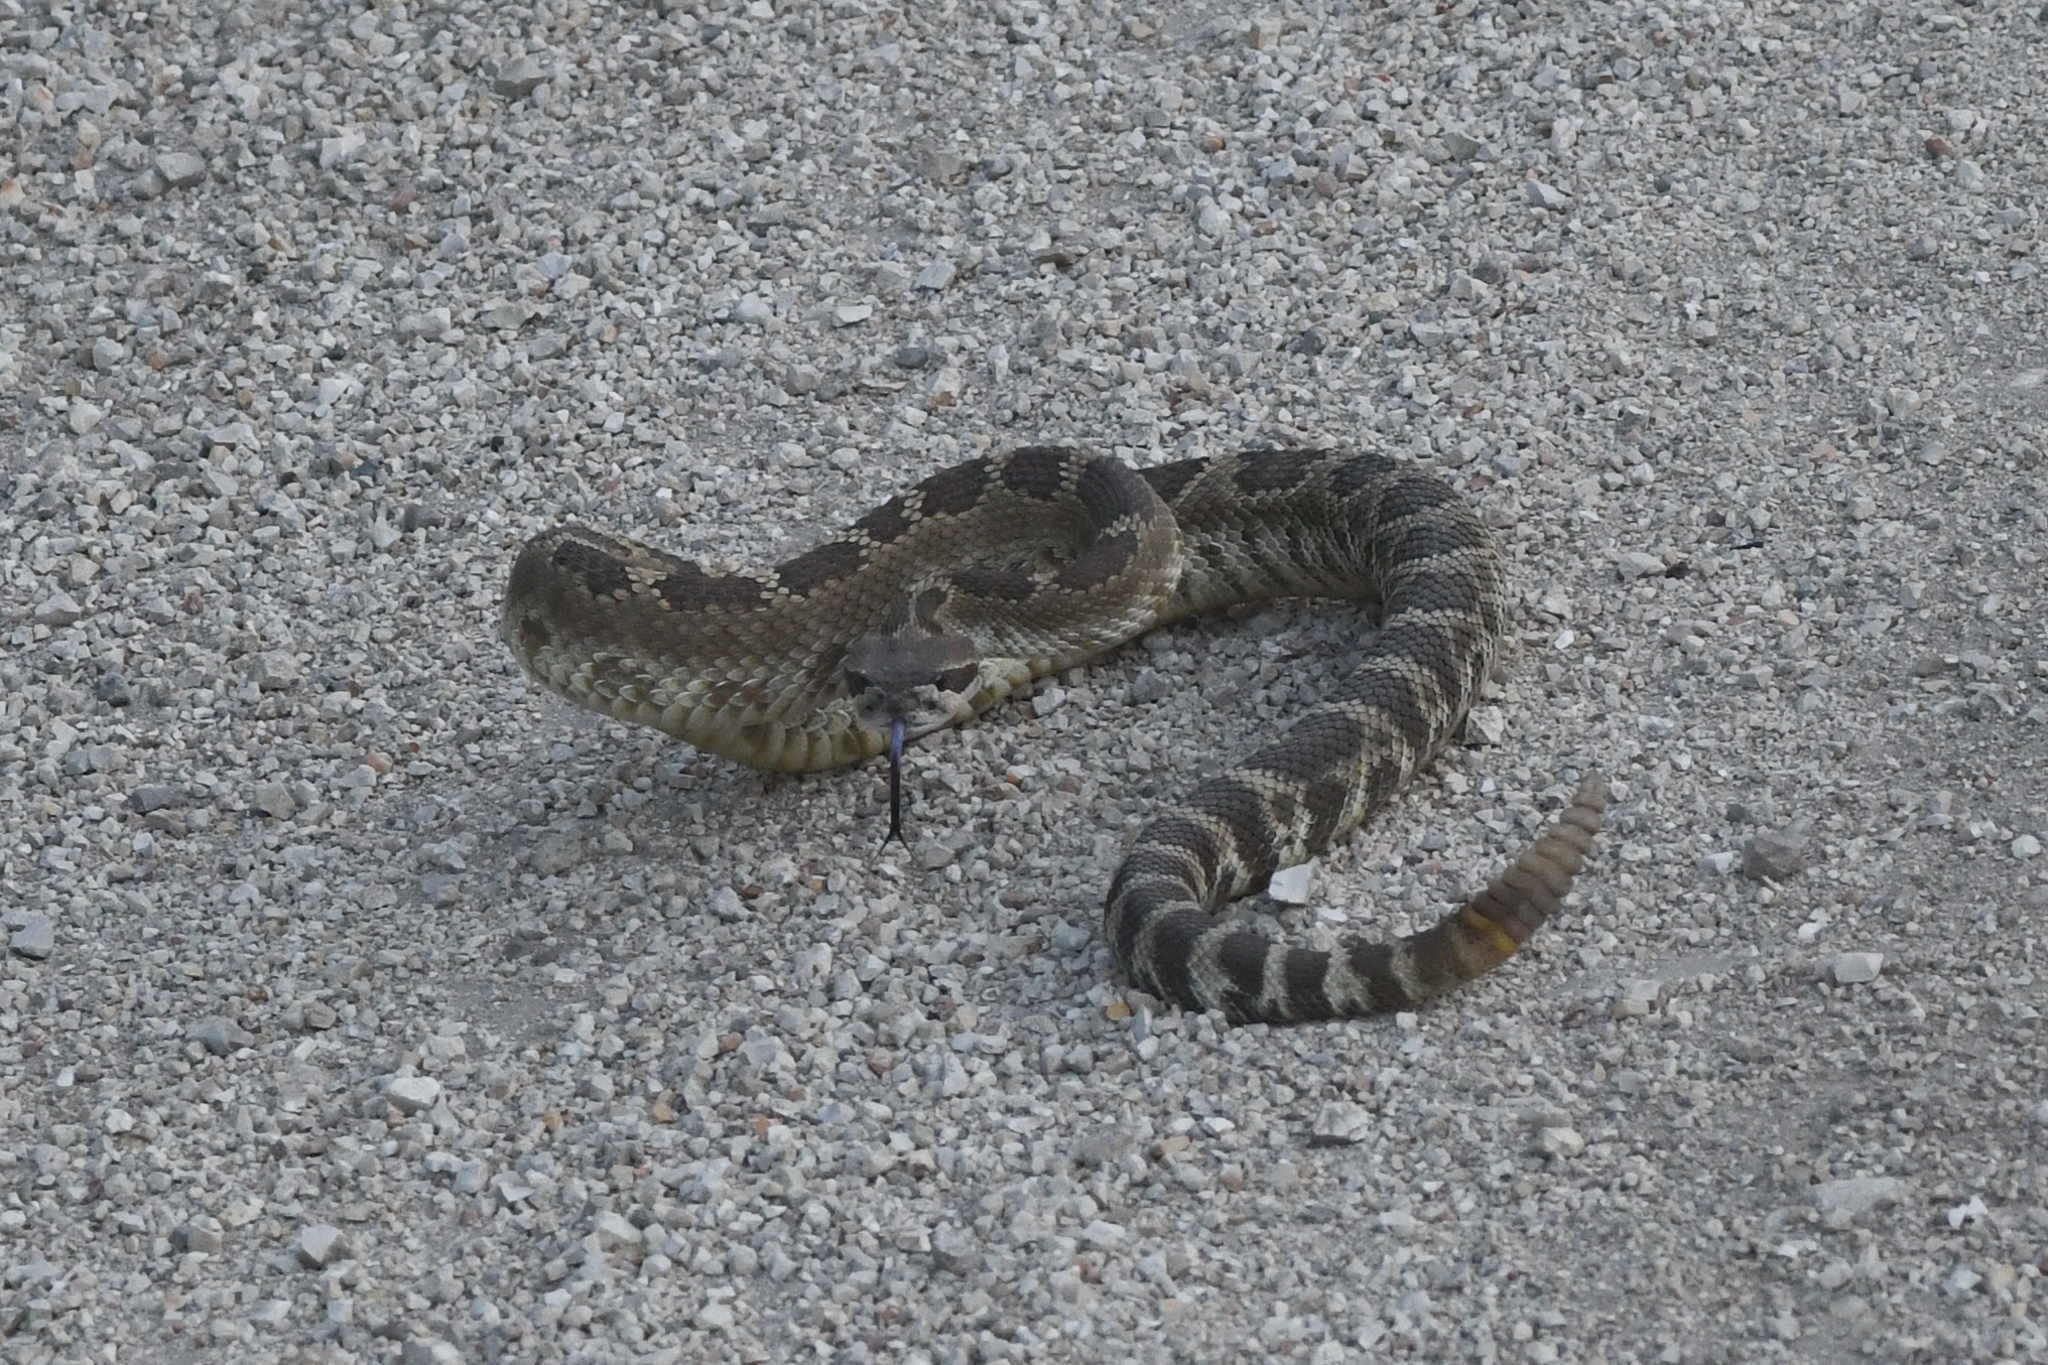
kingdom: Animalia
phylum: Chordata
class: Squamata
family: Viperidae
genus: Crotalus
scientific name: Crotalus oreganus
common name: Abyssus
